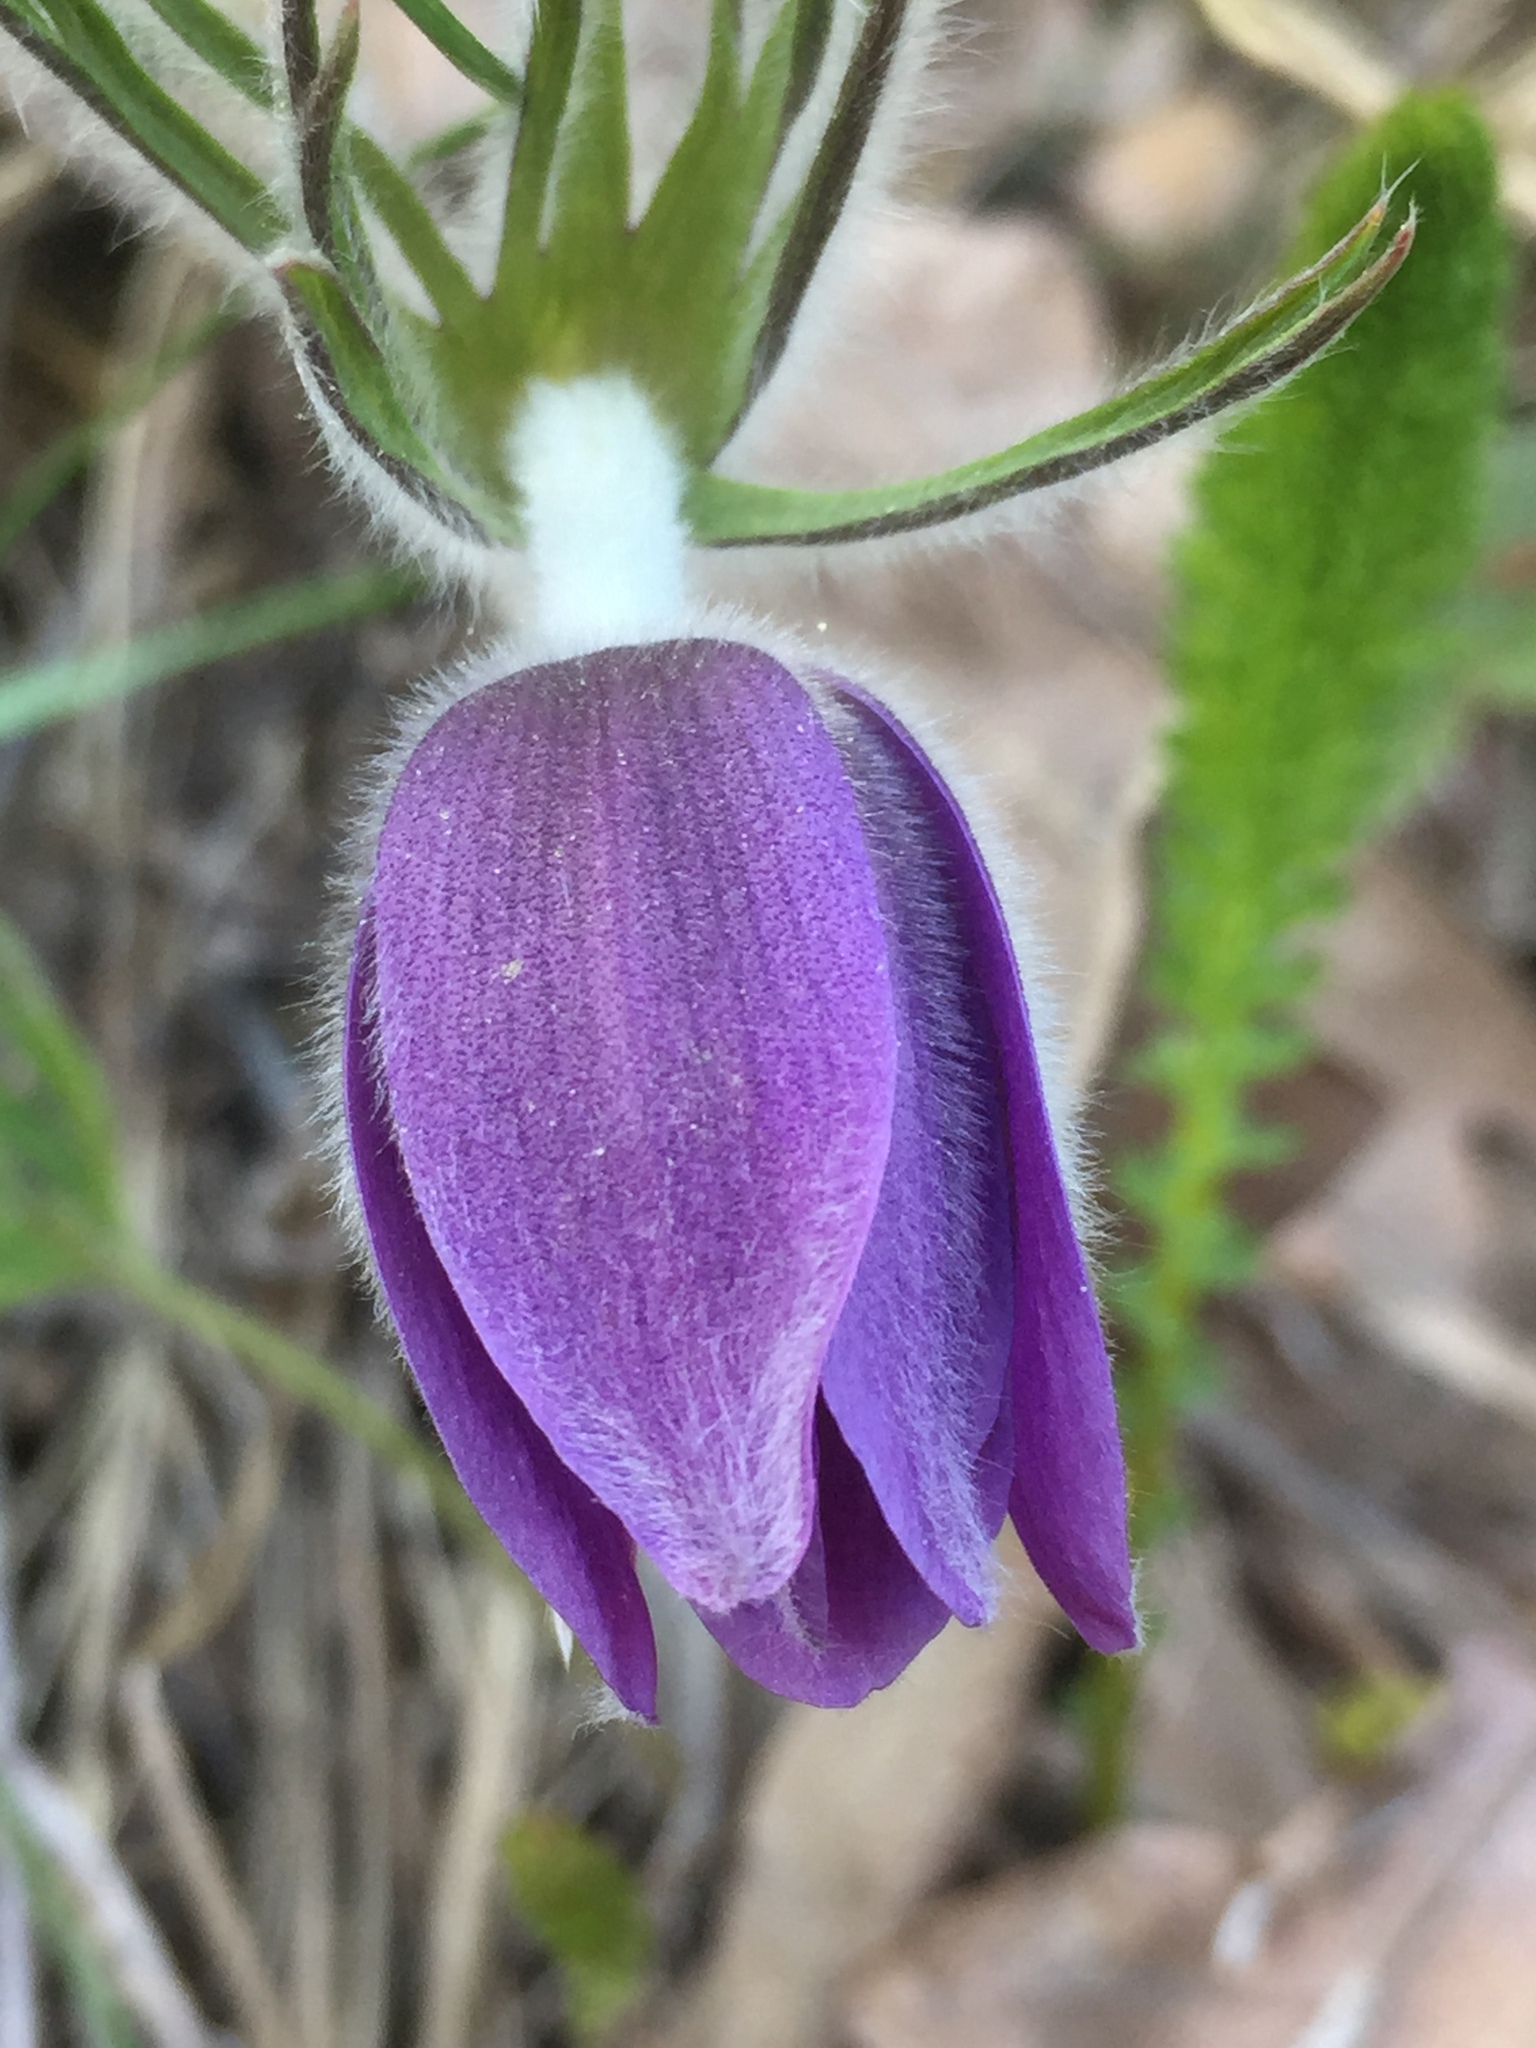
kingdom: Plantae
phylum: Tracheophyta
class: Magnoliopsida
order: Ranunculales
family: Ranunculaceae
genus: Pulsatilla
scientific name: Pulsatilla patens
